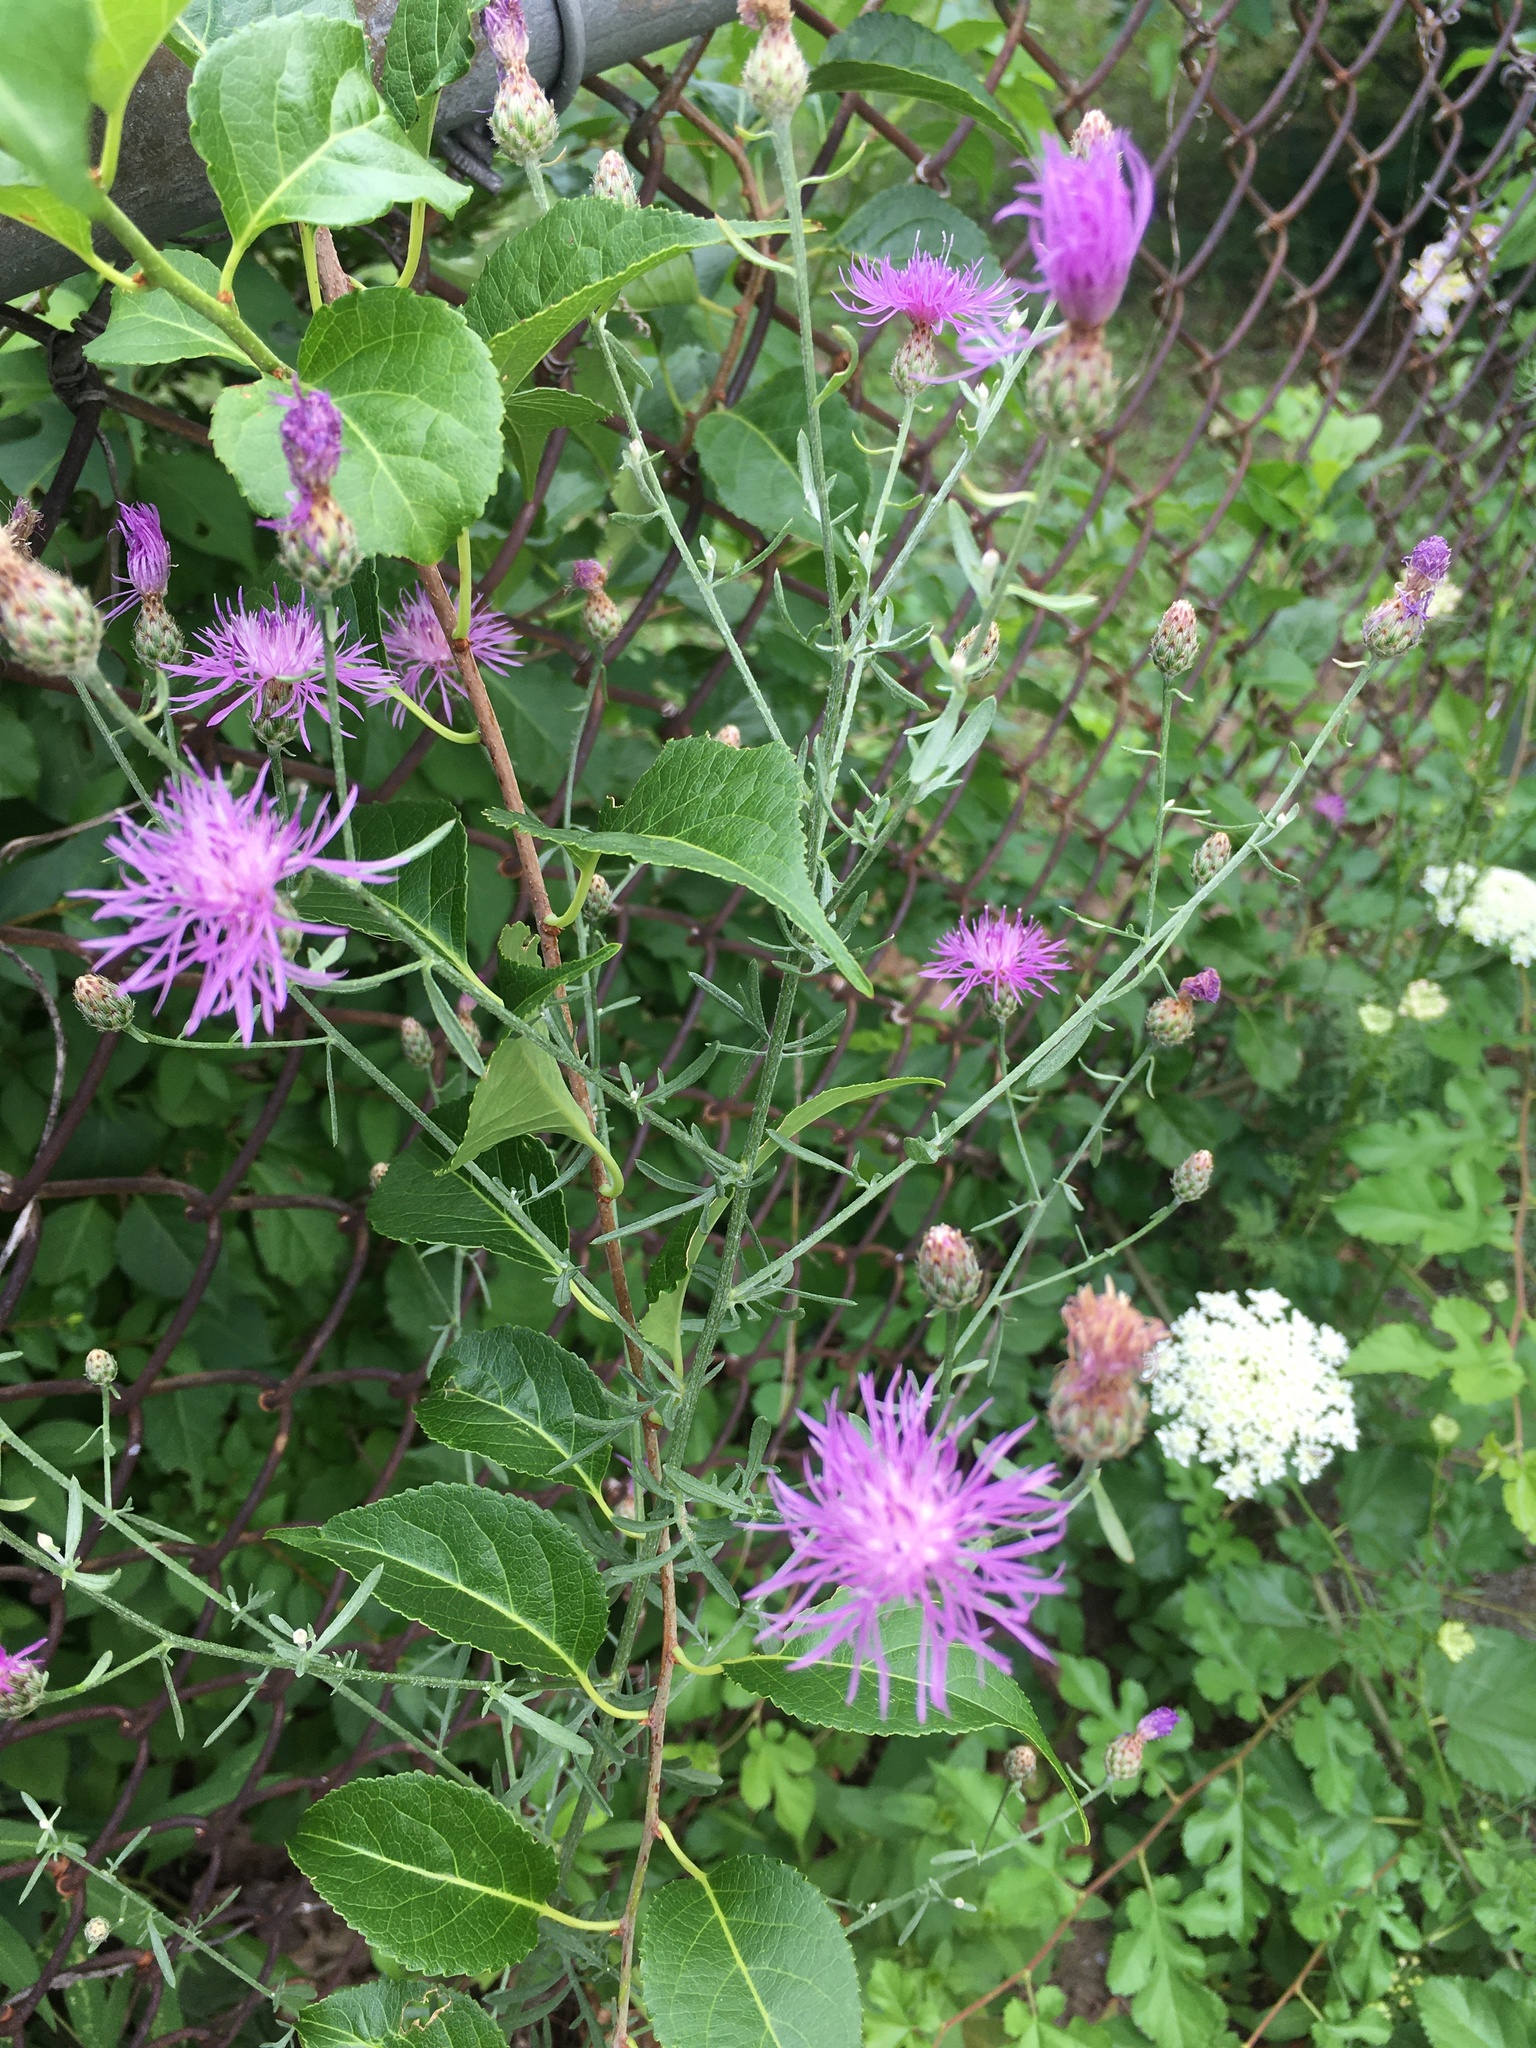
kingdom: Plantae
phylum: Tracheophyta
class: Magnoliopsida
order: Asterales
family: Asteraceae
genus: Centaurea
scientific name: Centaurea stoebe
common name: Spotted knapweed
